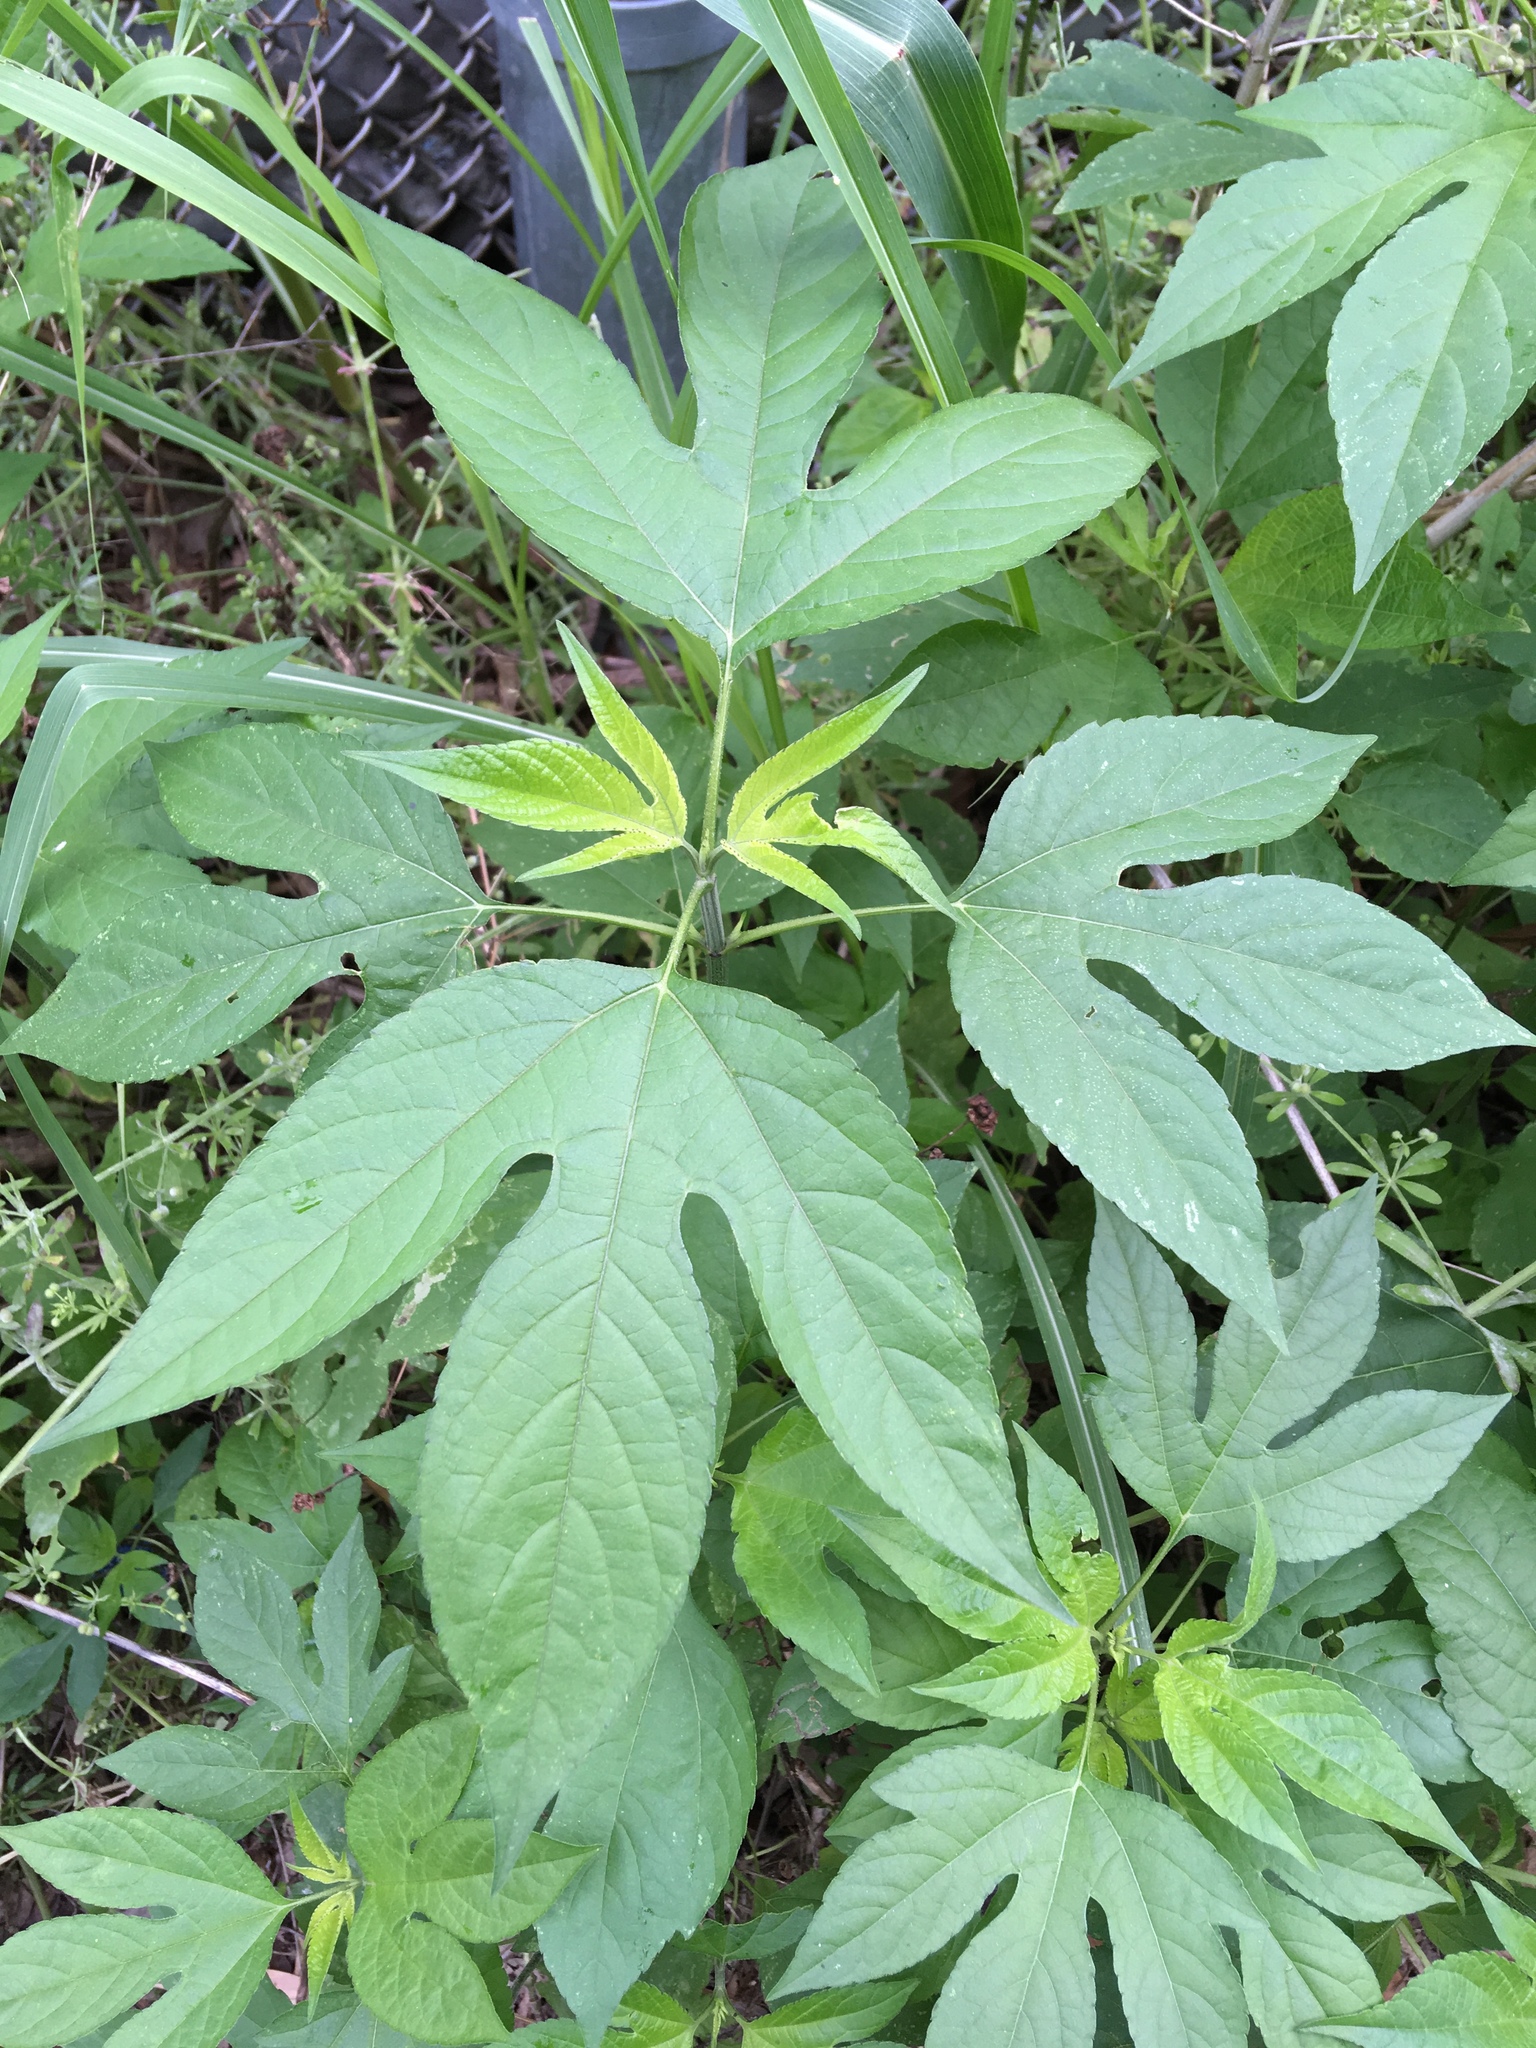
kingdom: Plantae
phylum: Tracheophyta
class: Magnoliopsida
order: Asterales
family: Asteraceae
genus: Ambrosia
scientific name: Ambrosia trifida
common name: Giant ragweed
